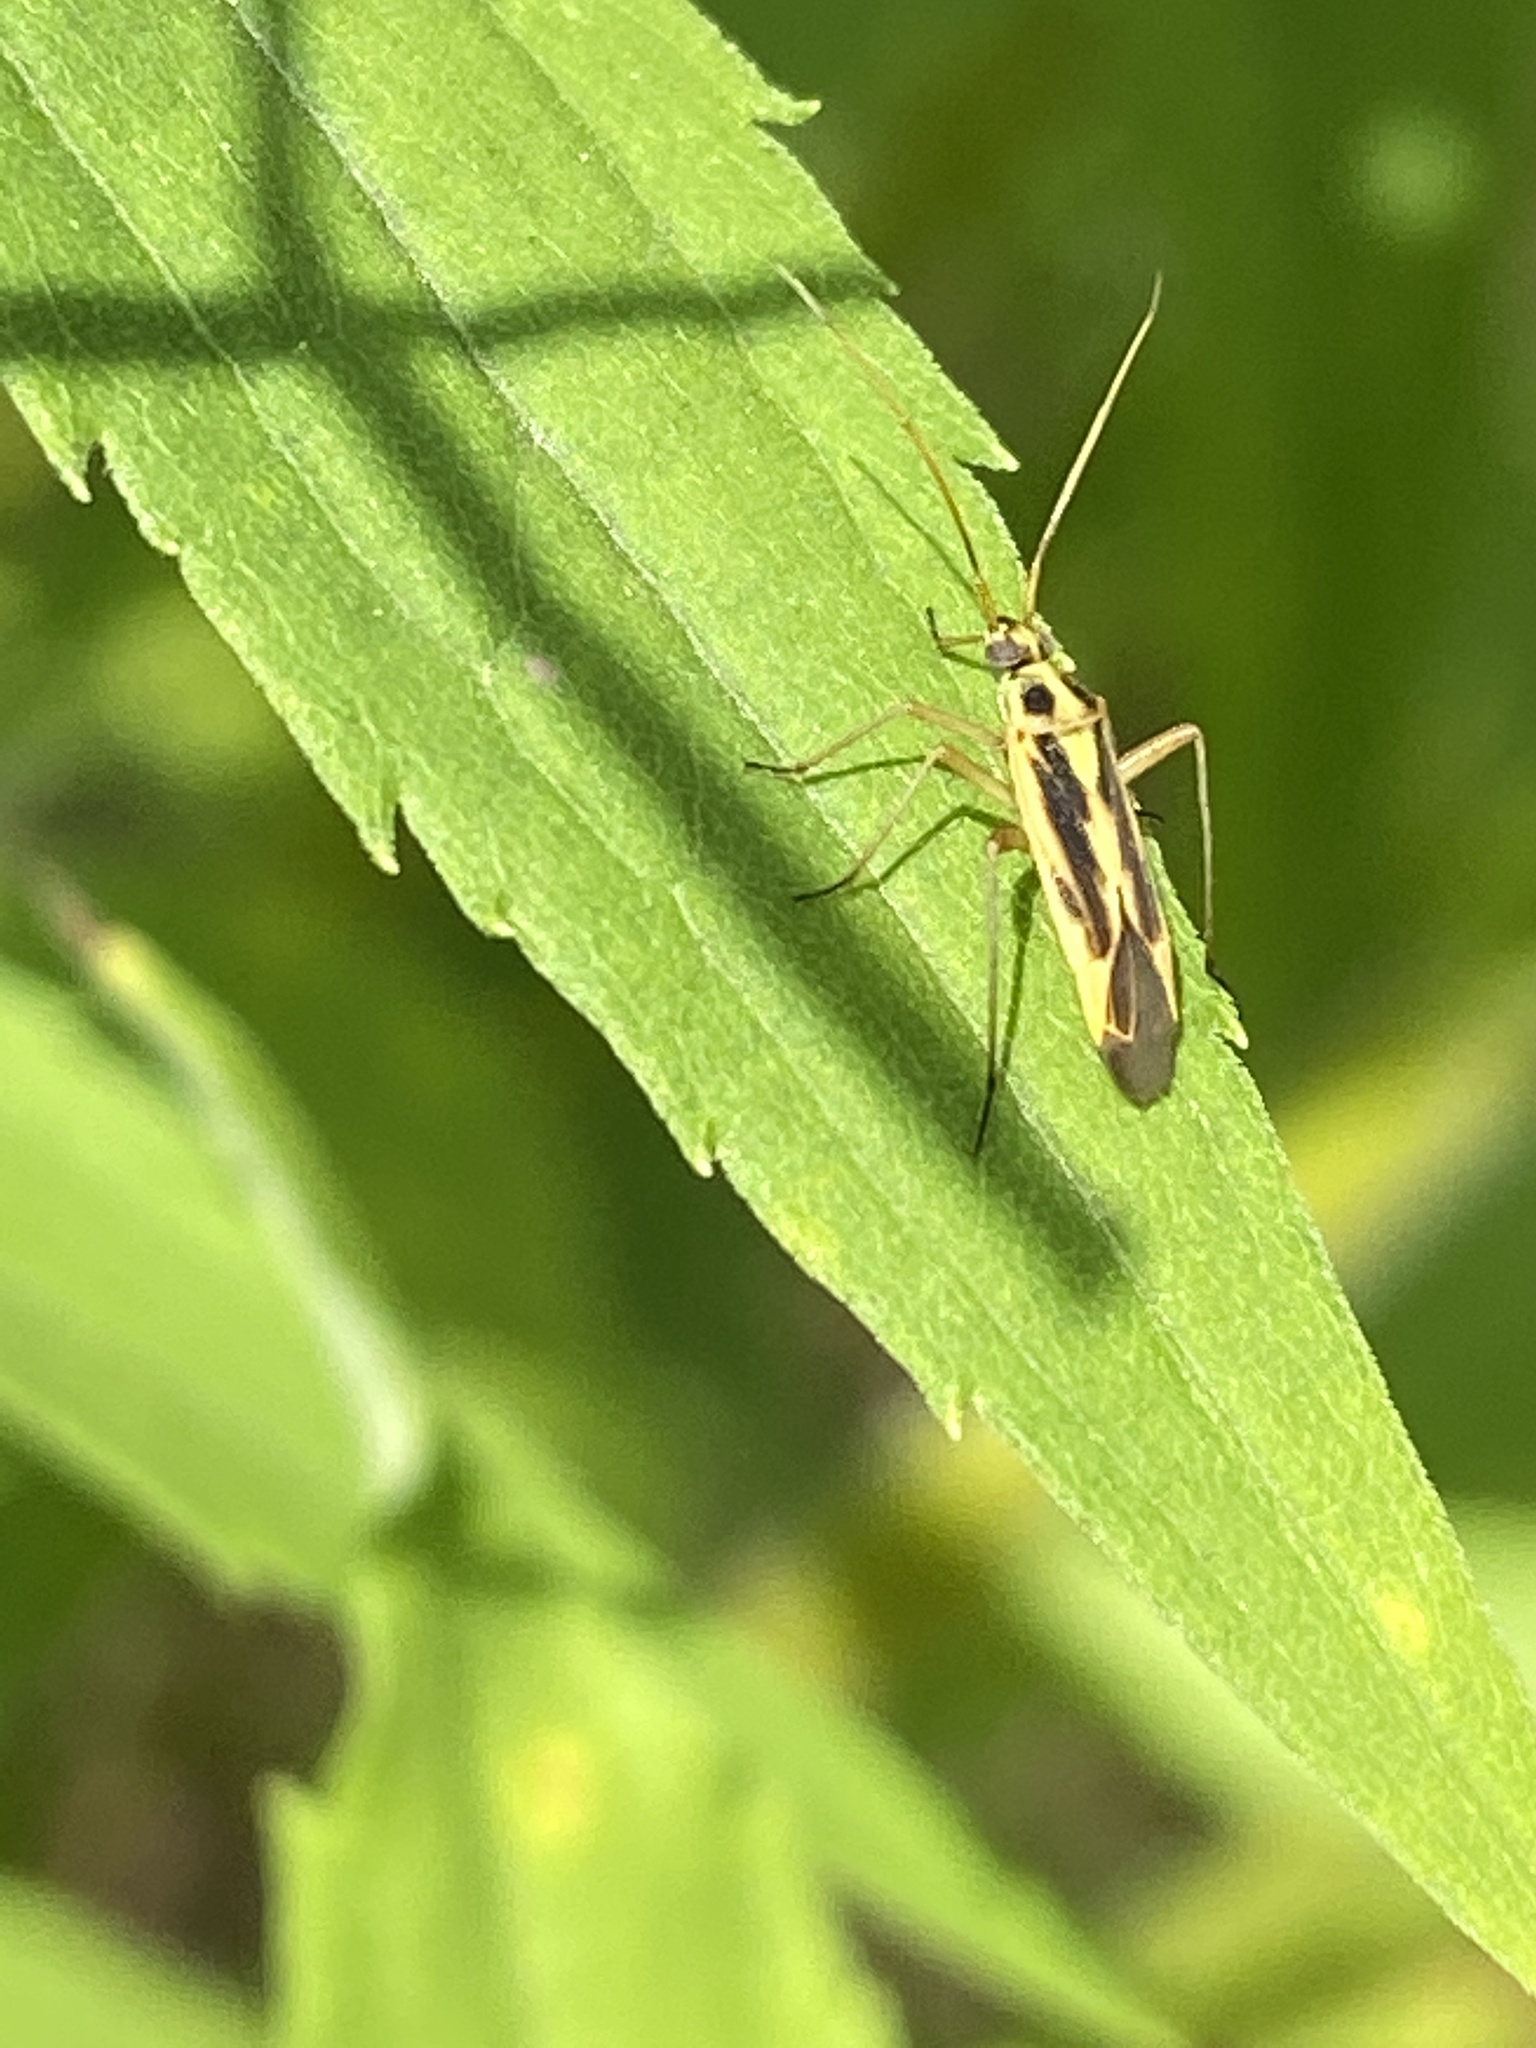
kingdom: Animalia
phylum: Arthropoda
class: Insecta
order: Hemiptera
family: Miridae
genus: Stenotus
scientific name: Stenotus binotatus
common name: Plant bug
